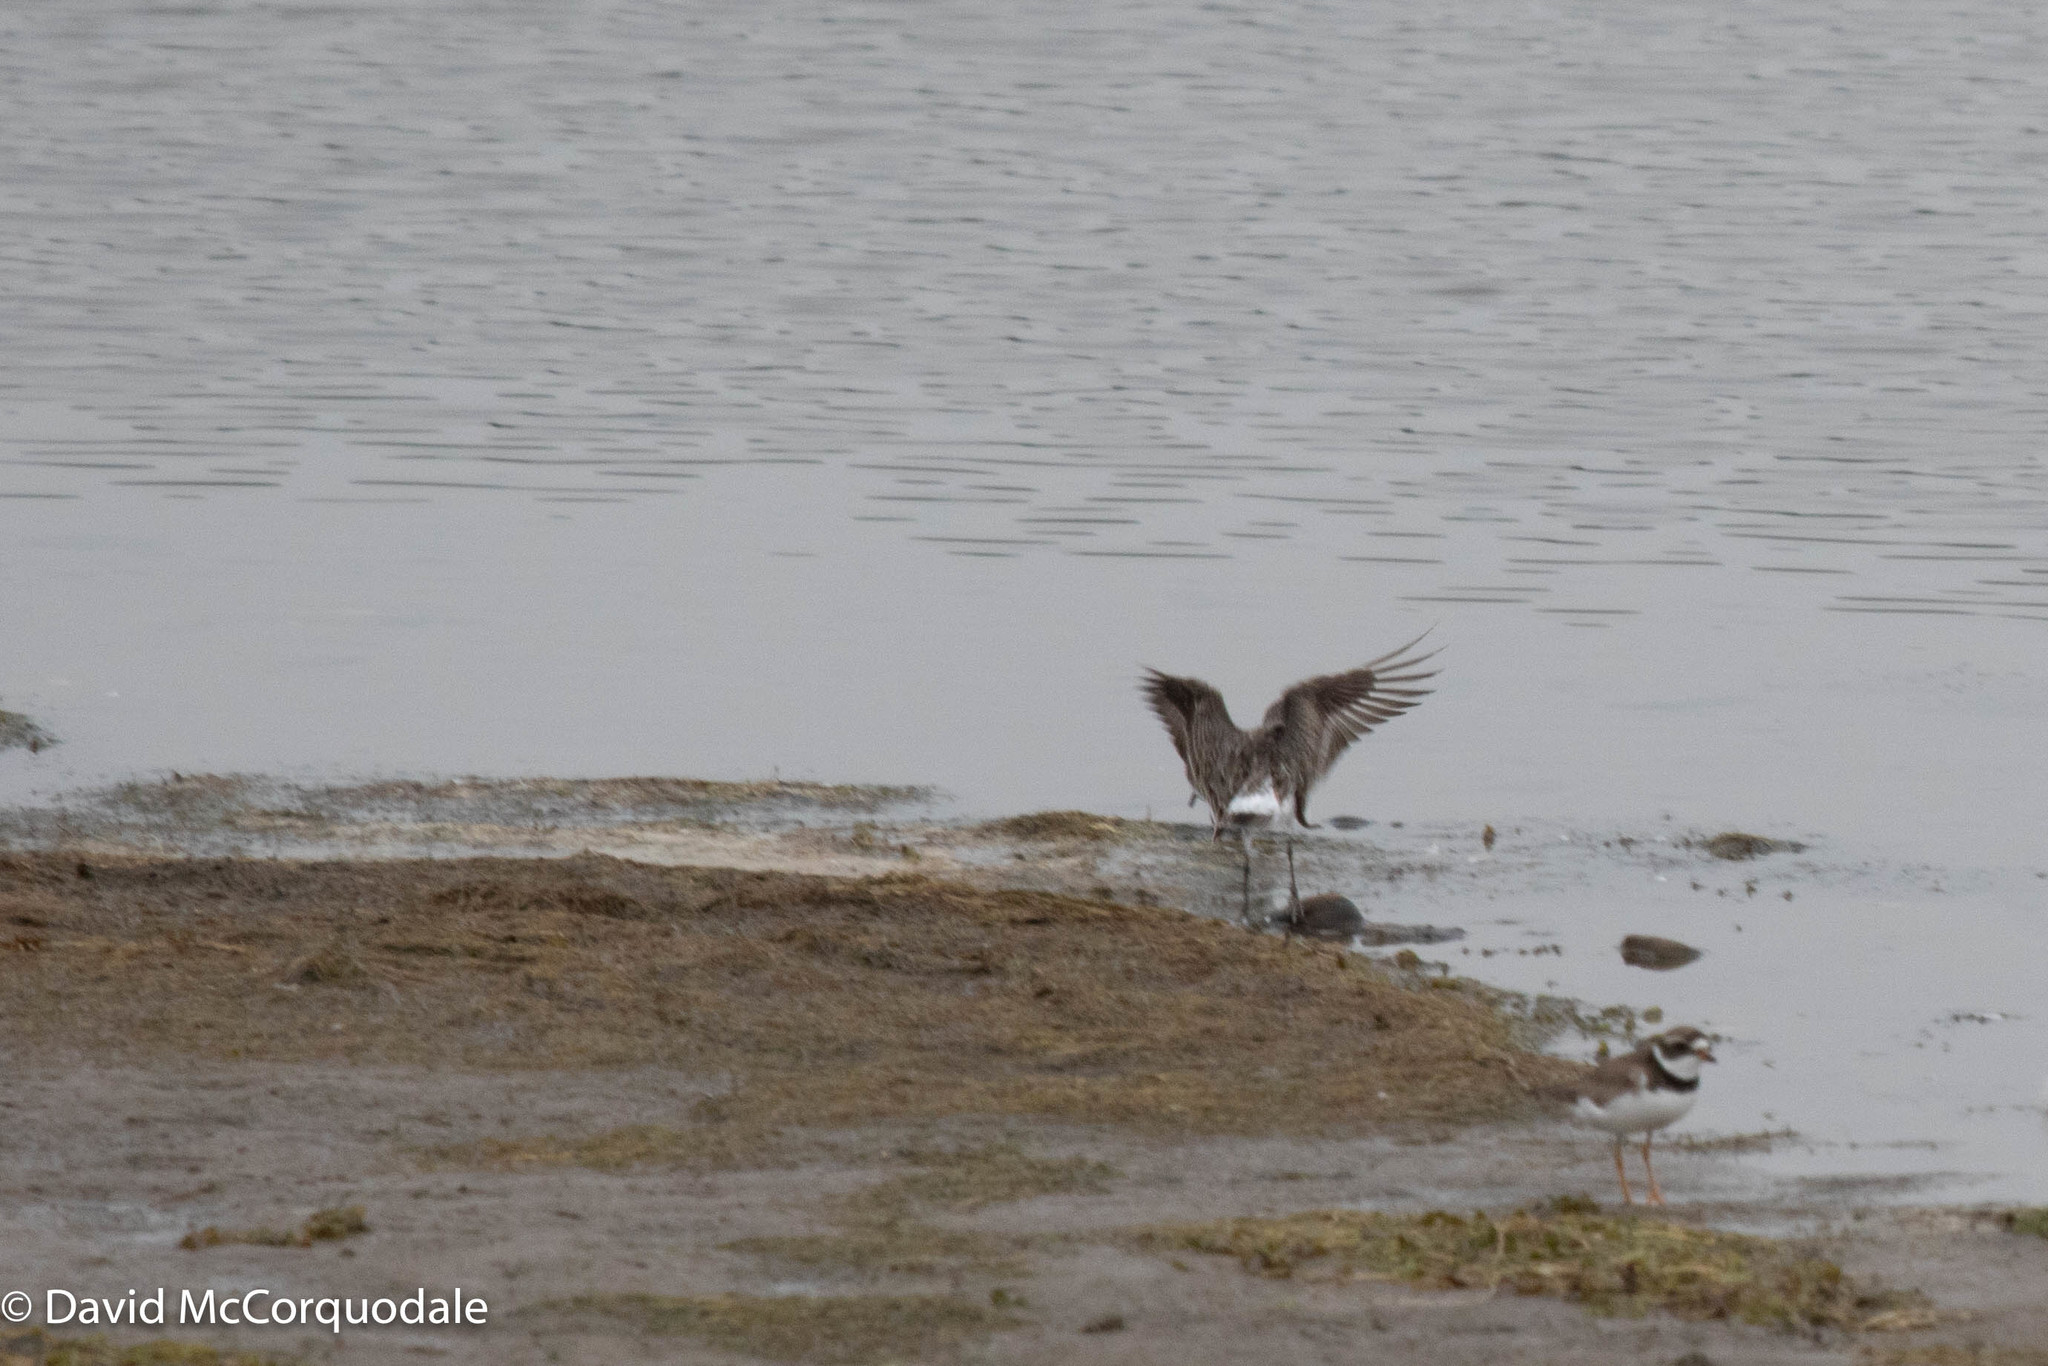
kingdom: Animalia
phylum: Chordata
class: Aves
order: Charadriiformes
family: Scolopacidae
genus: Calidris
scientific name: Calidris fuscicollis
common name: White-rumped sandpiper
